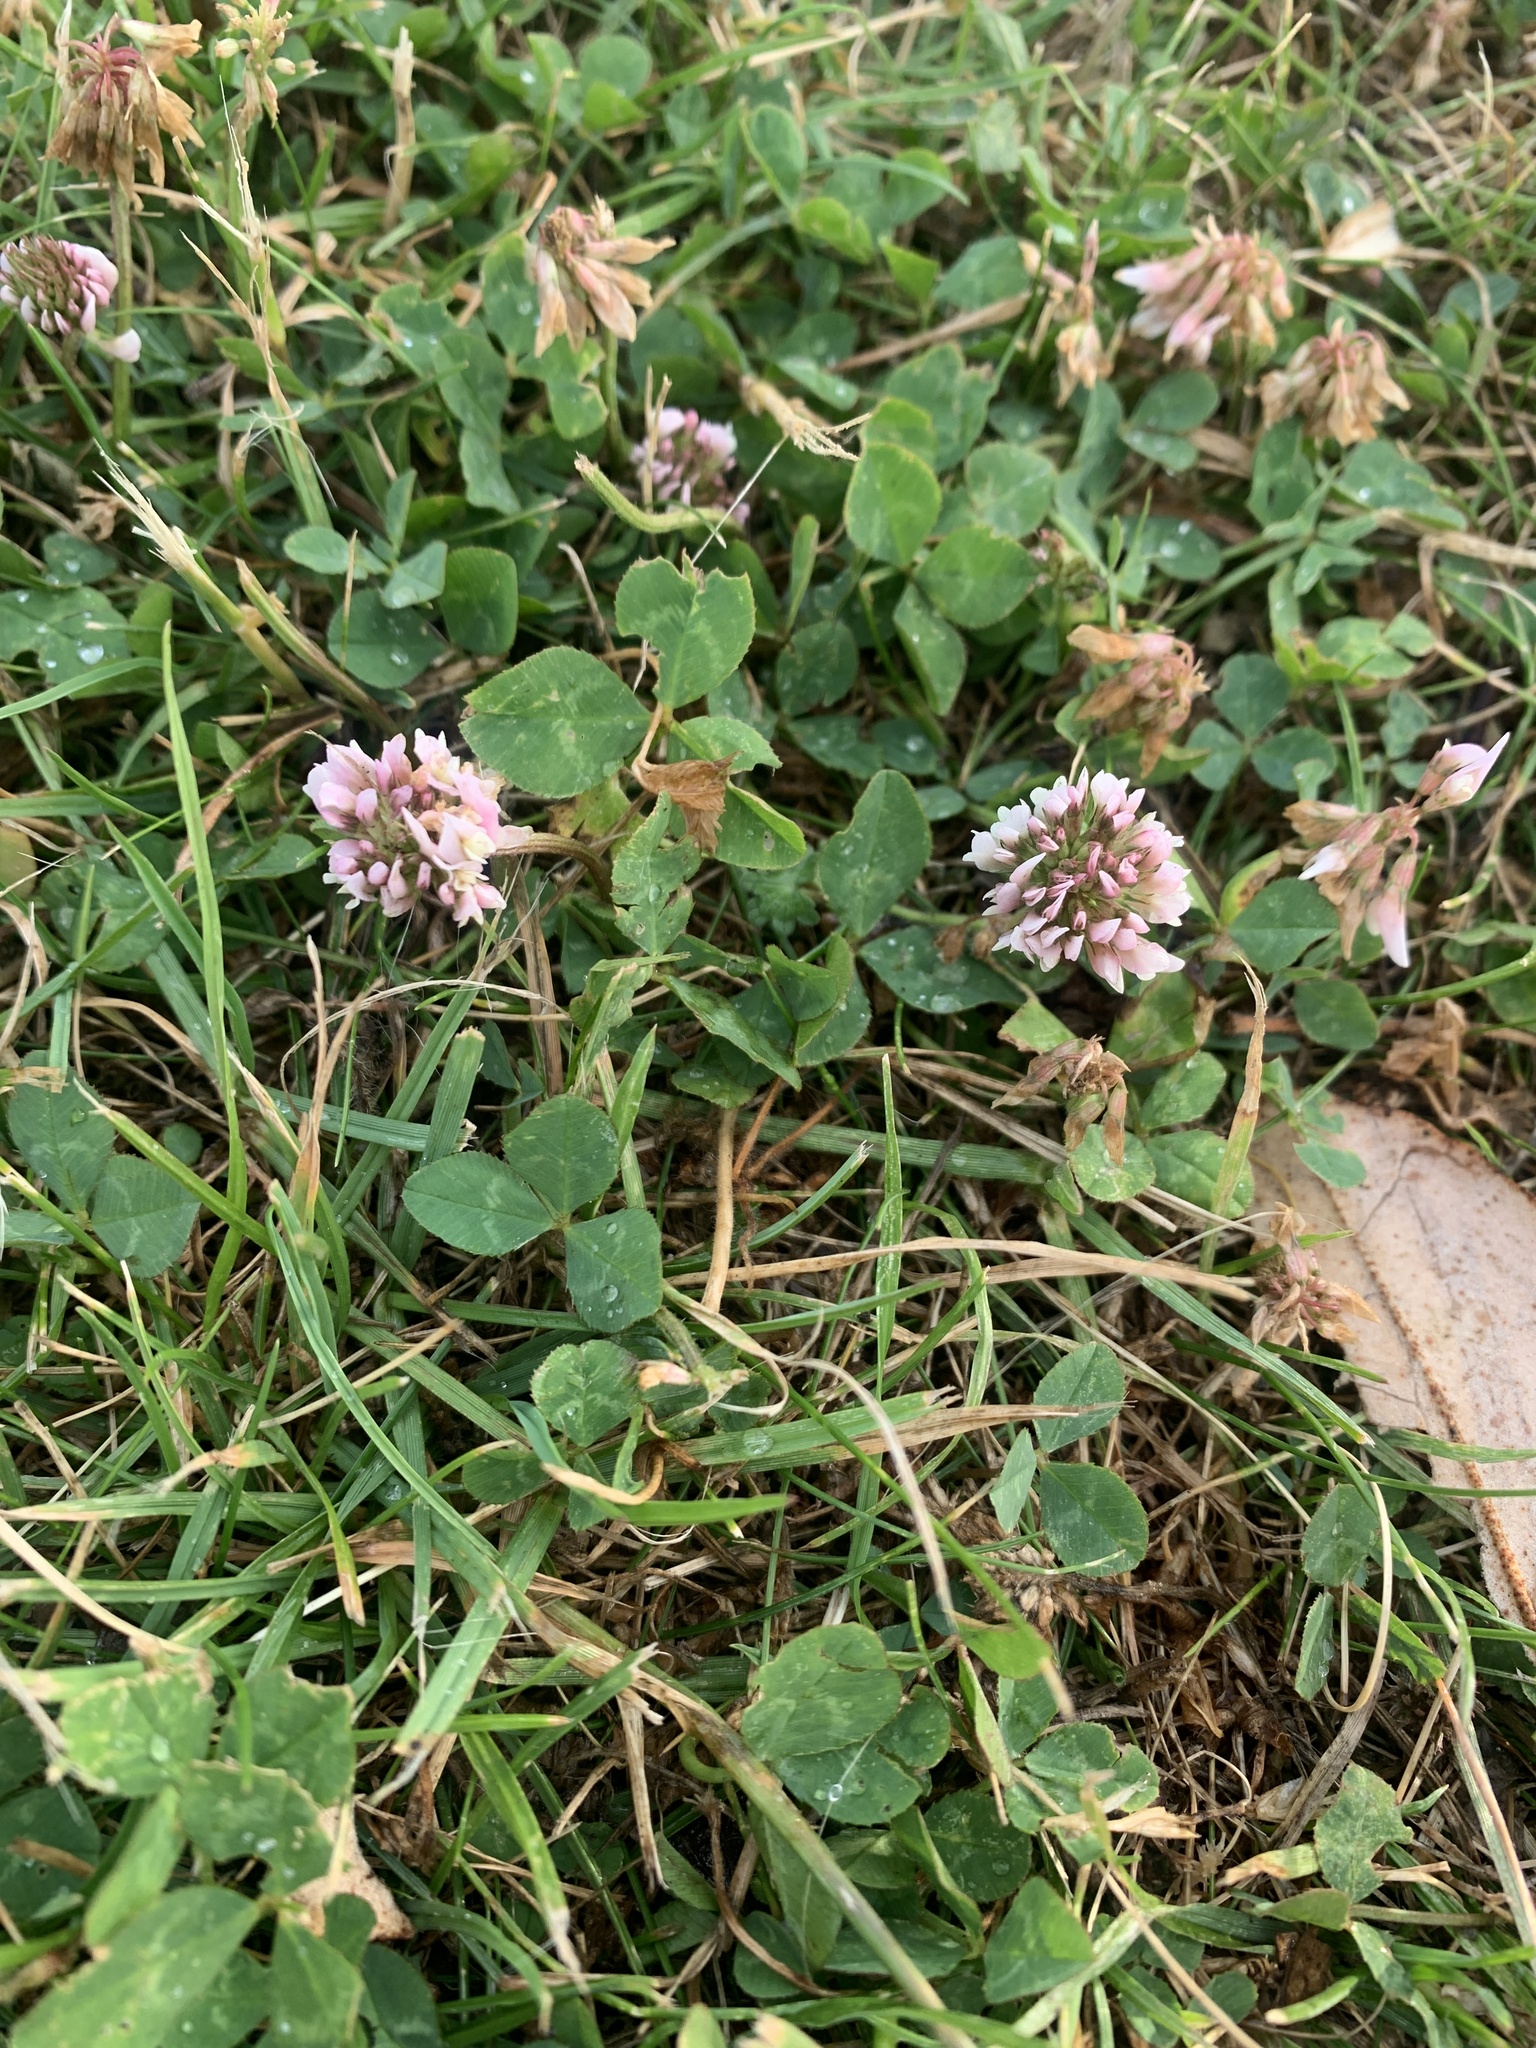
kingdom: Plantae
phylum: Tracheophyta
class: Magnoliopsida
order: Fabales
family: Fabaceae
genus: Trifolium
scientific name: Trifolium repens
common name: White clover
